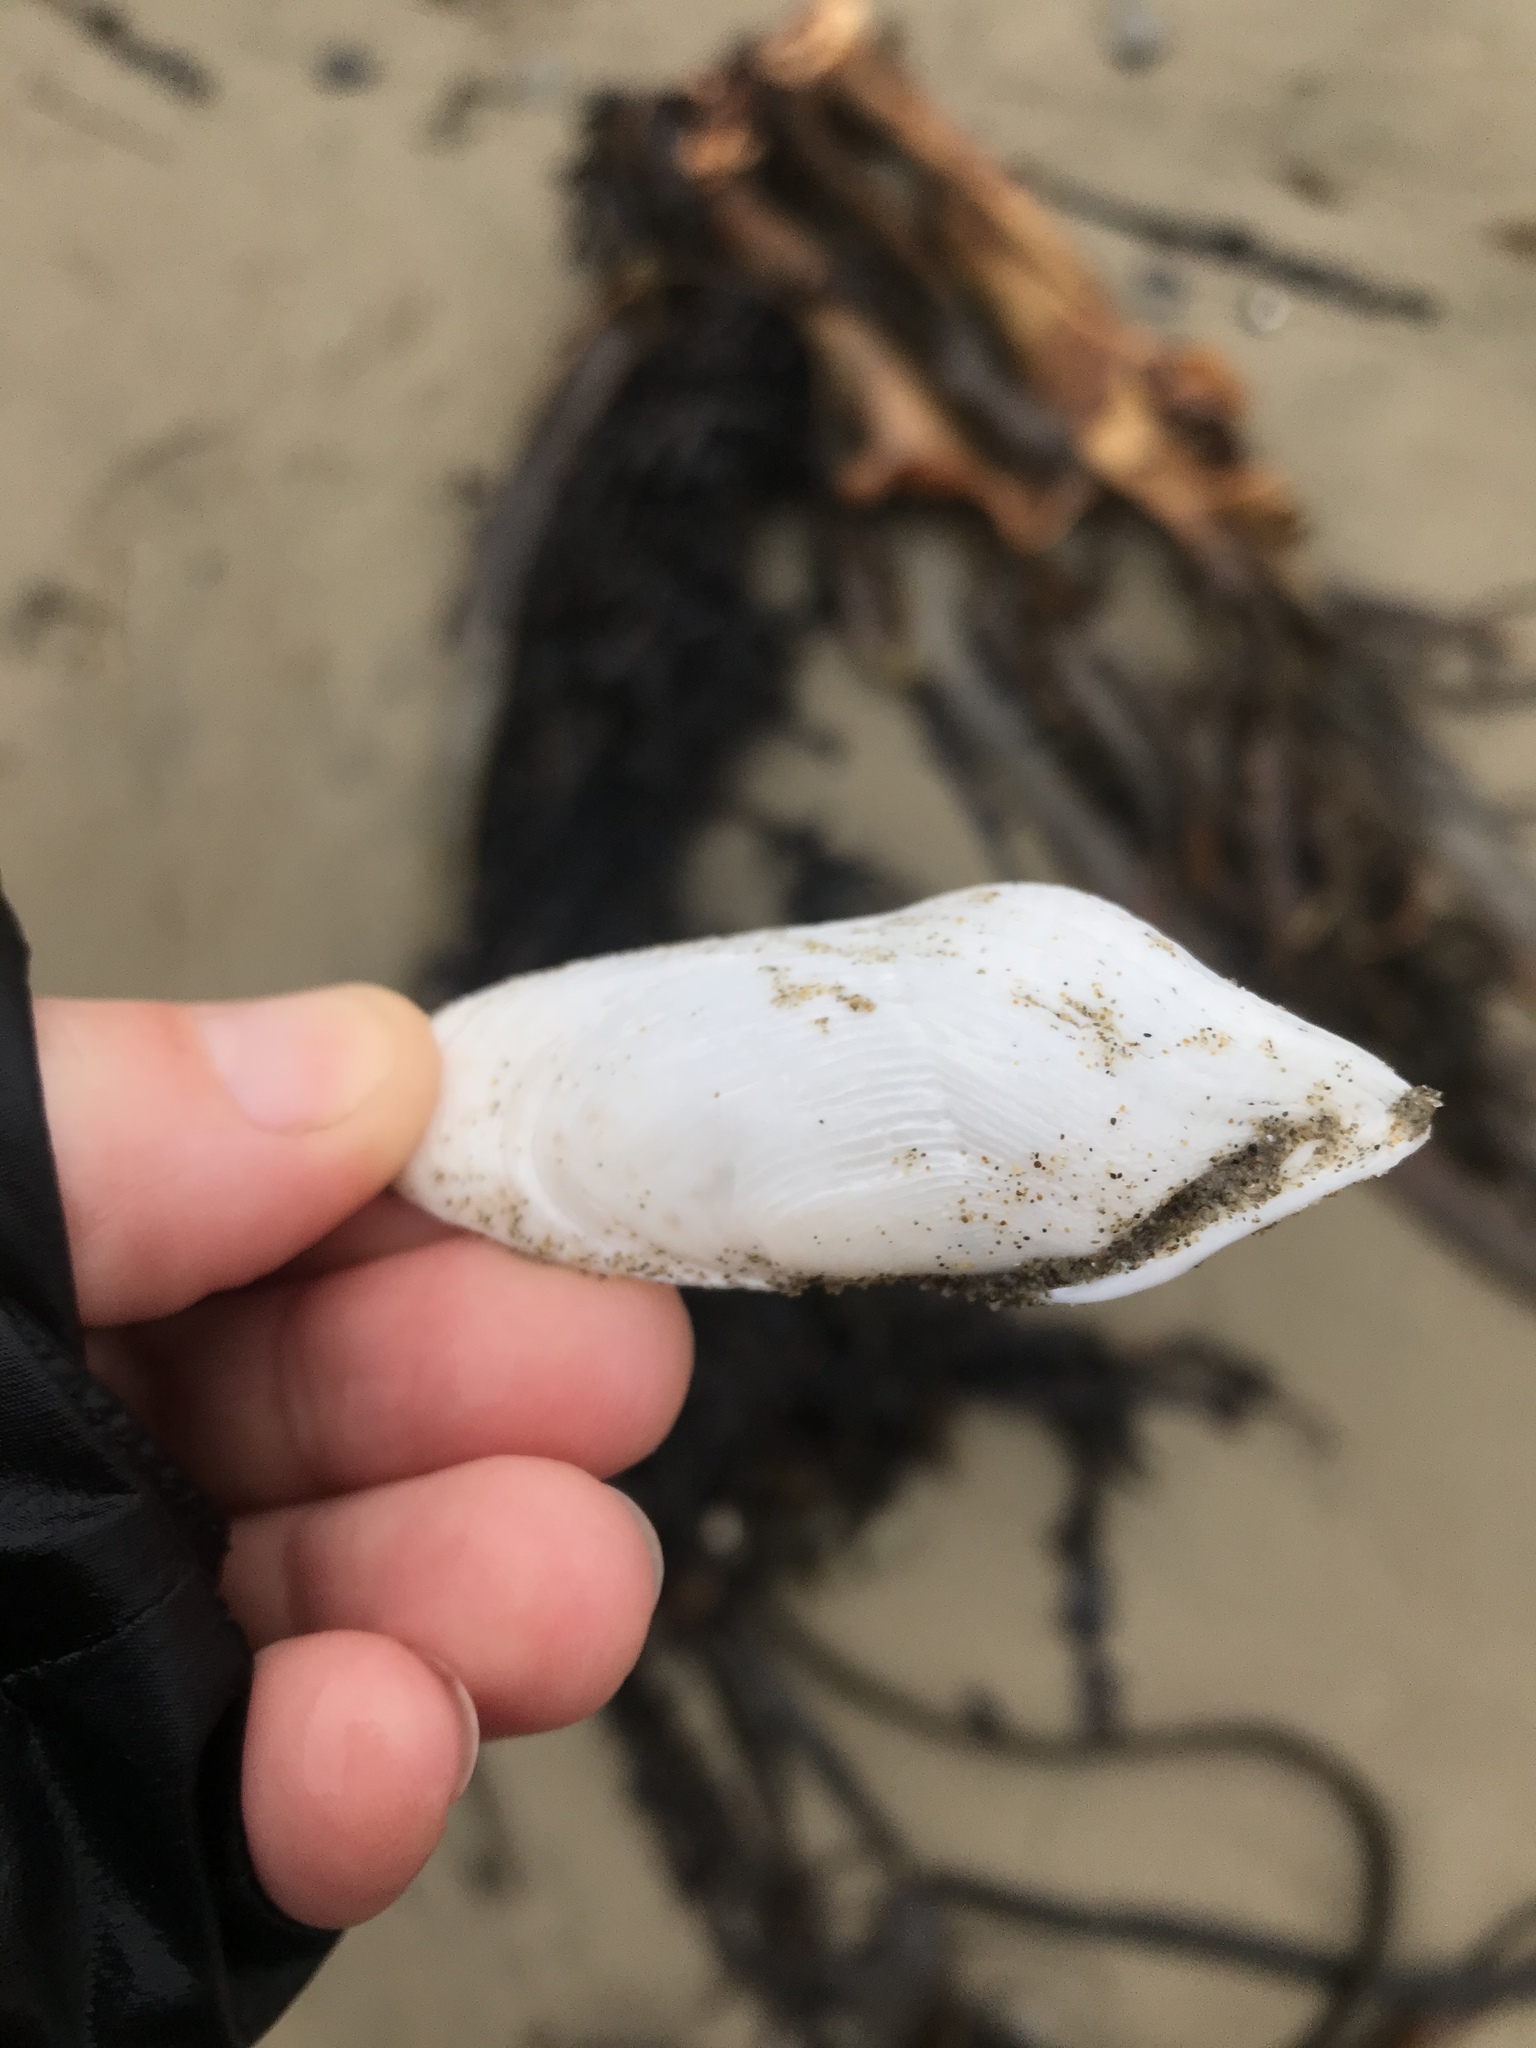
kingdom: Animalia
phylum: Mollusca
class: Bivalvia
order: Myida
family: Pholadidae
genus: Barnea
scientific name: Barnea similis
